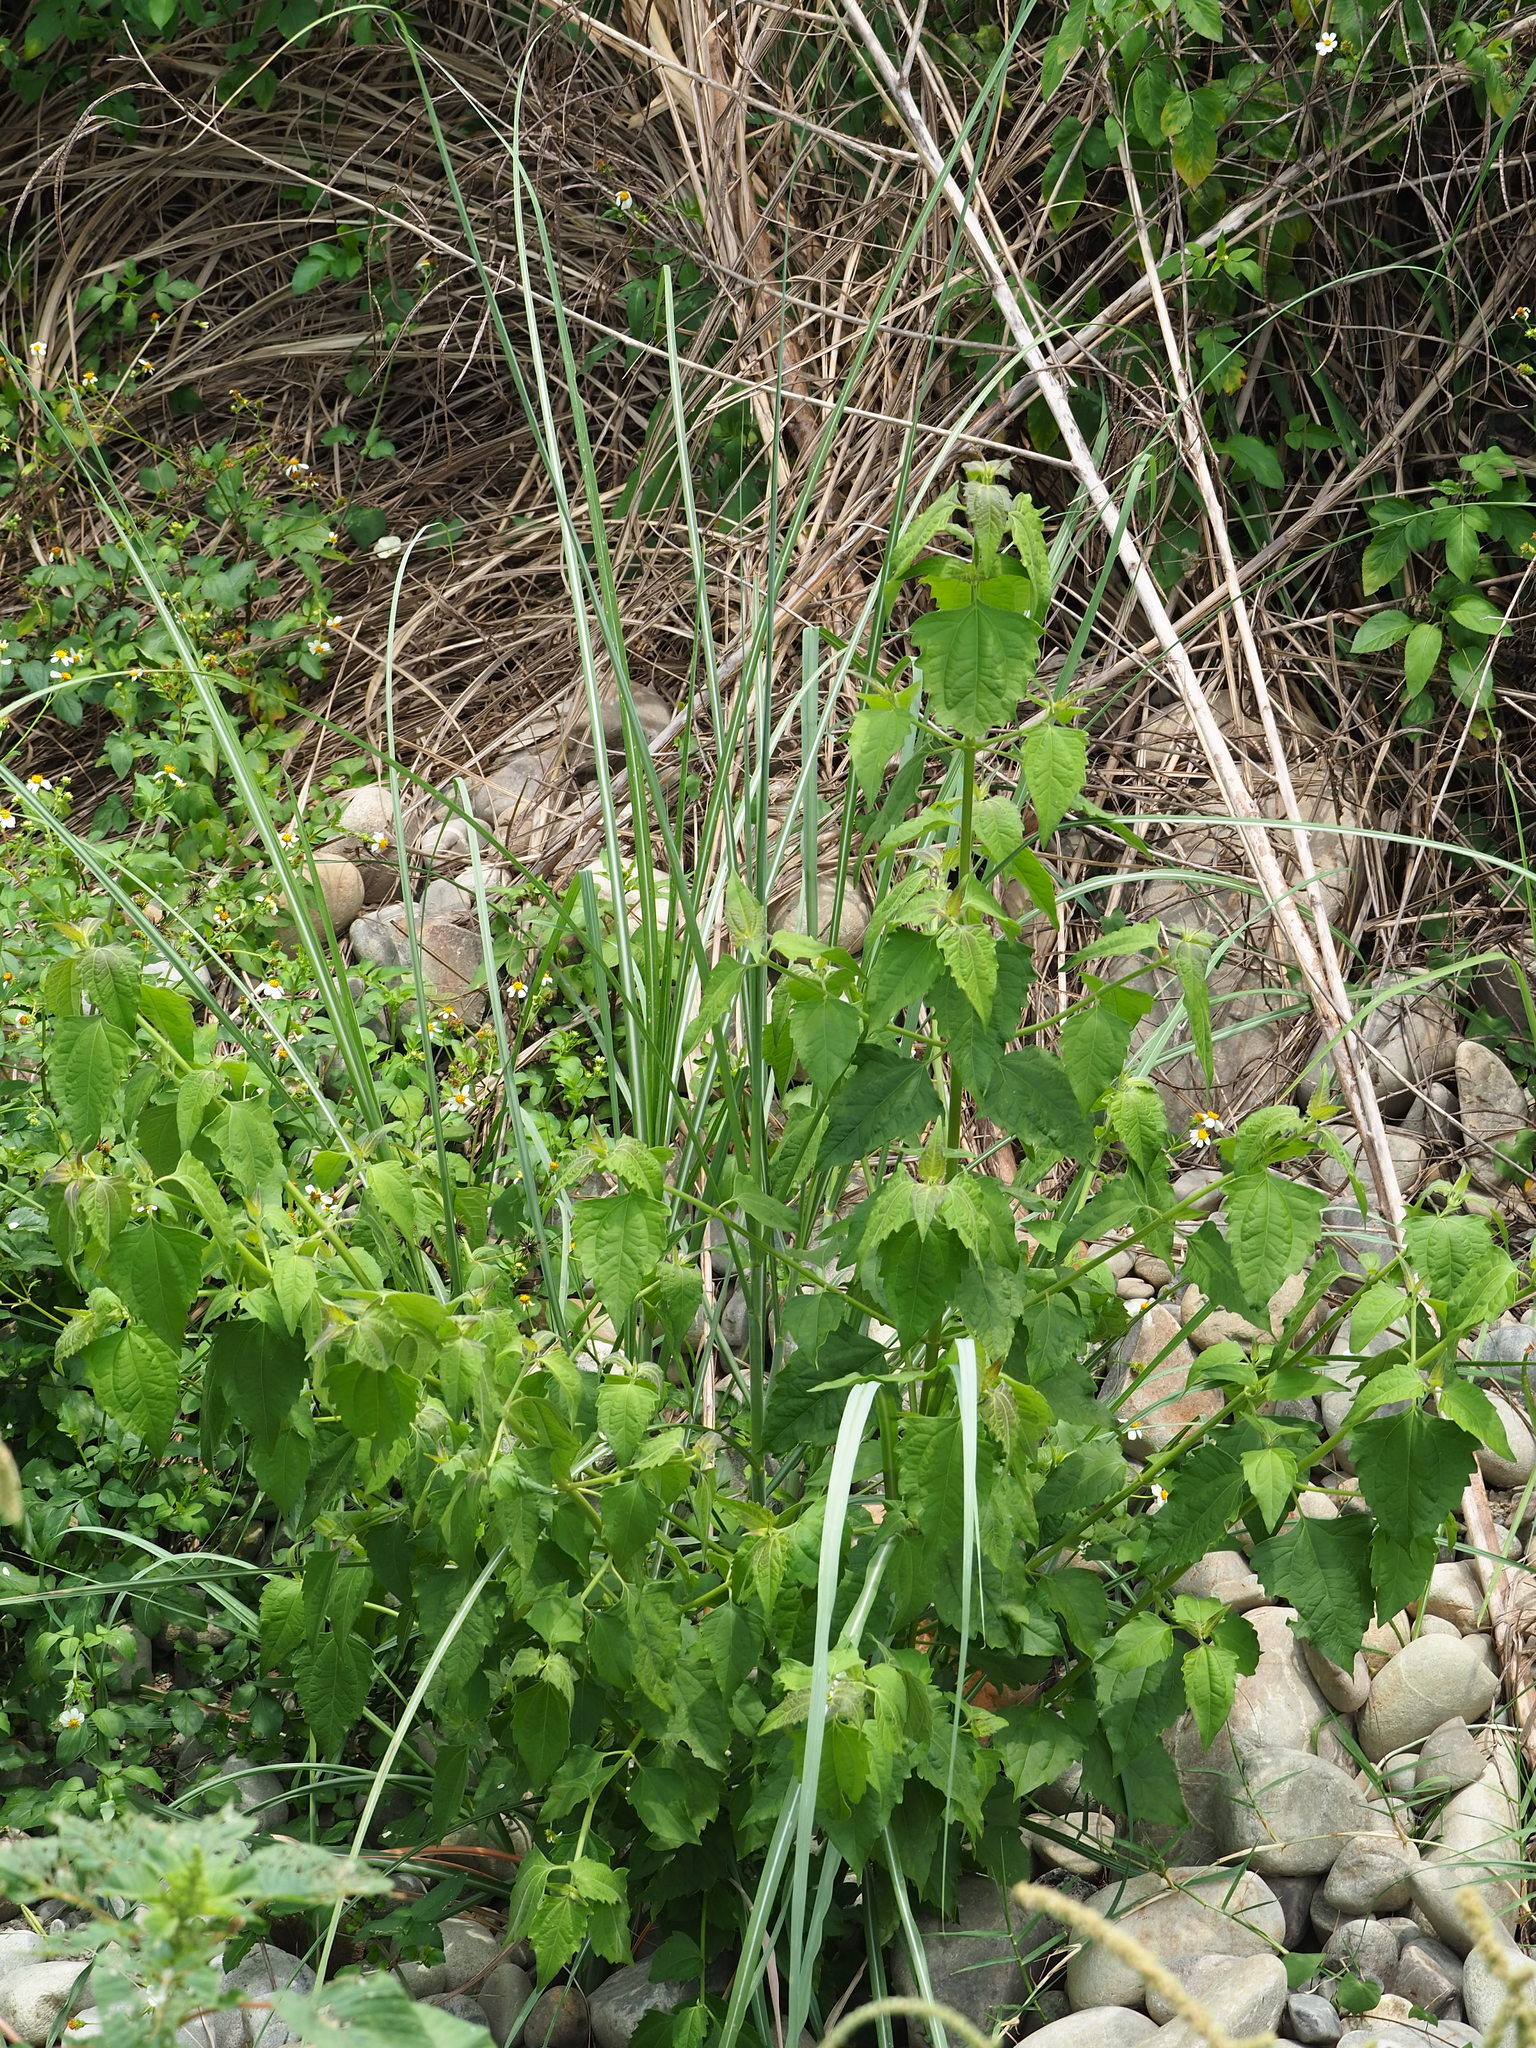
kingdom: Plantae
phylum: Tracheophyta
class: Magnoliopsida
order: Asterales
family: Asteraceae
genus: Chromolaena
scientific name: Chromolaena odorata
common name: Siamweed
